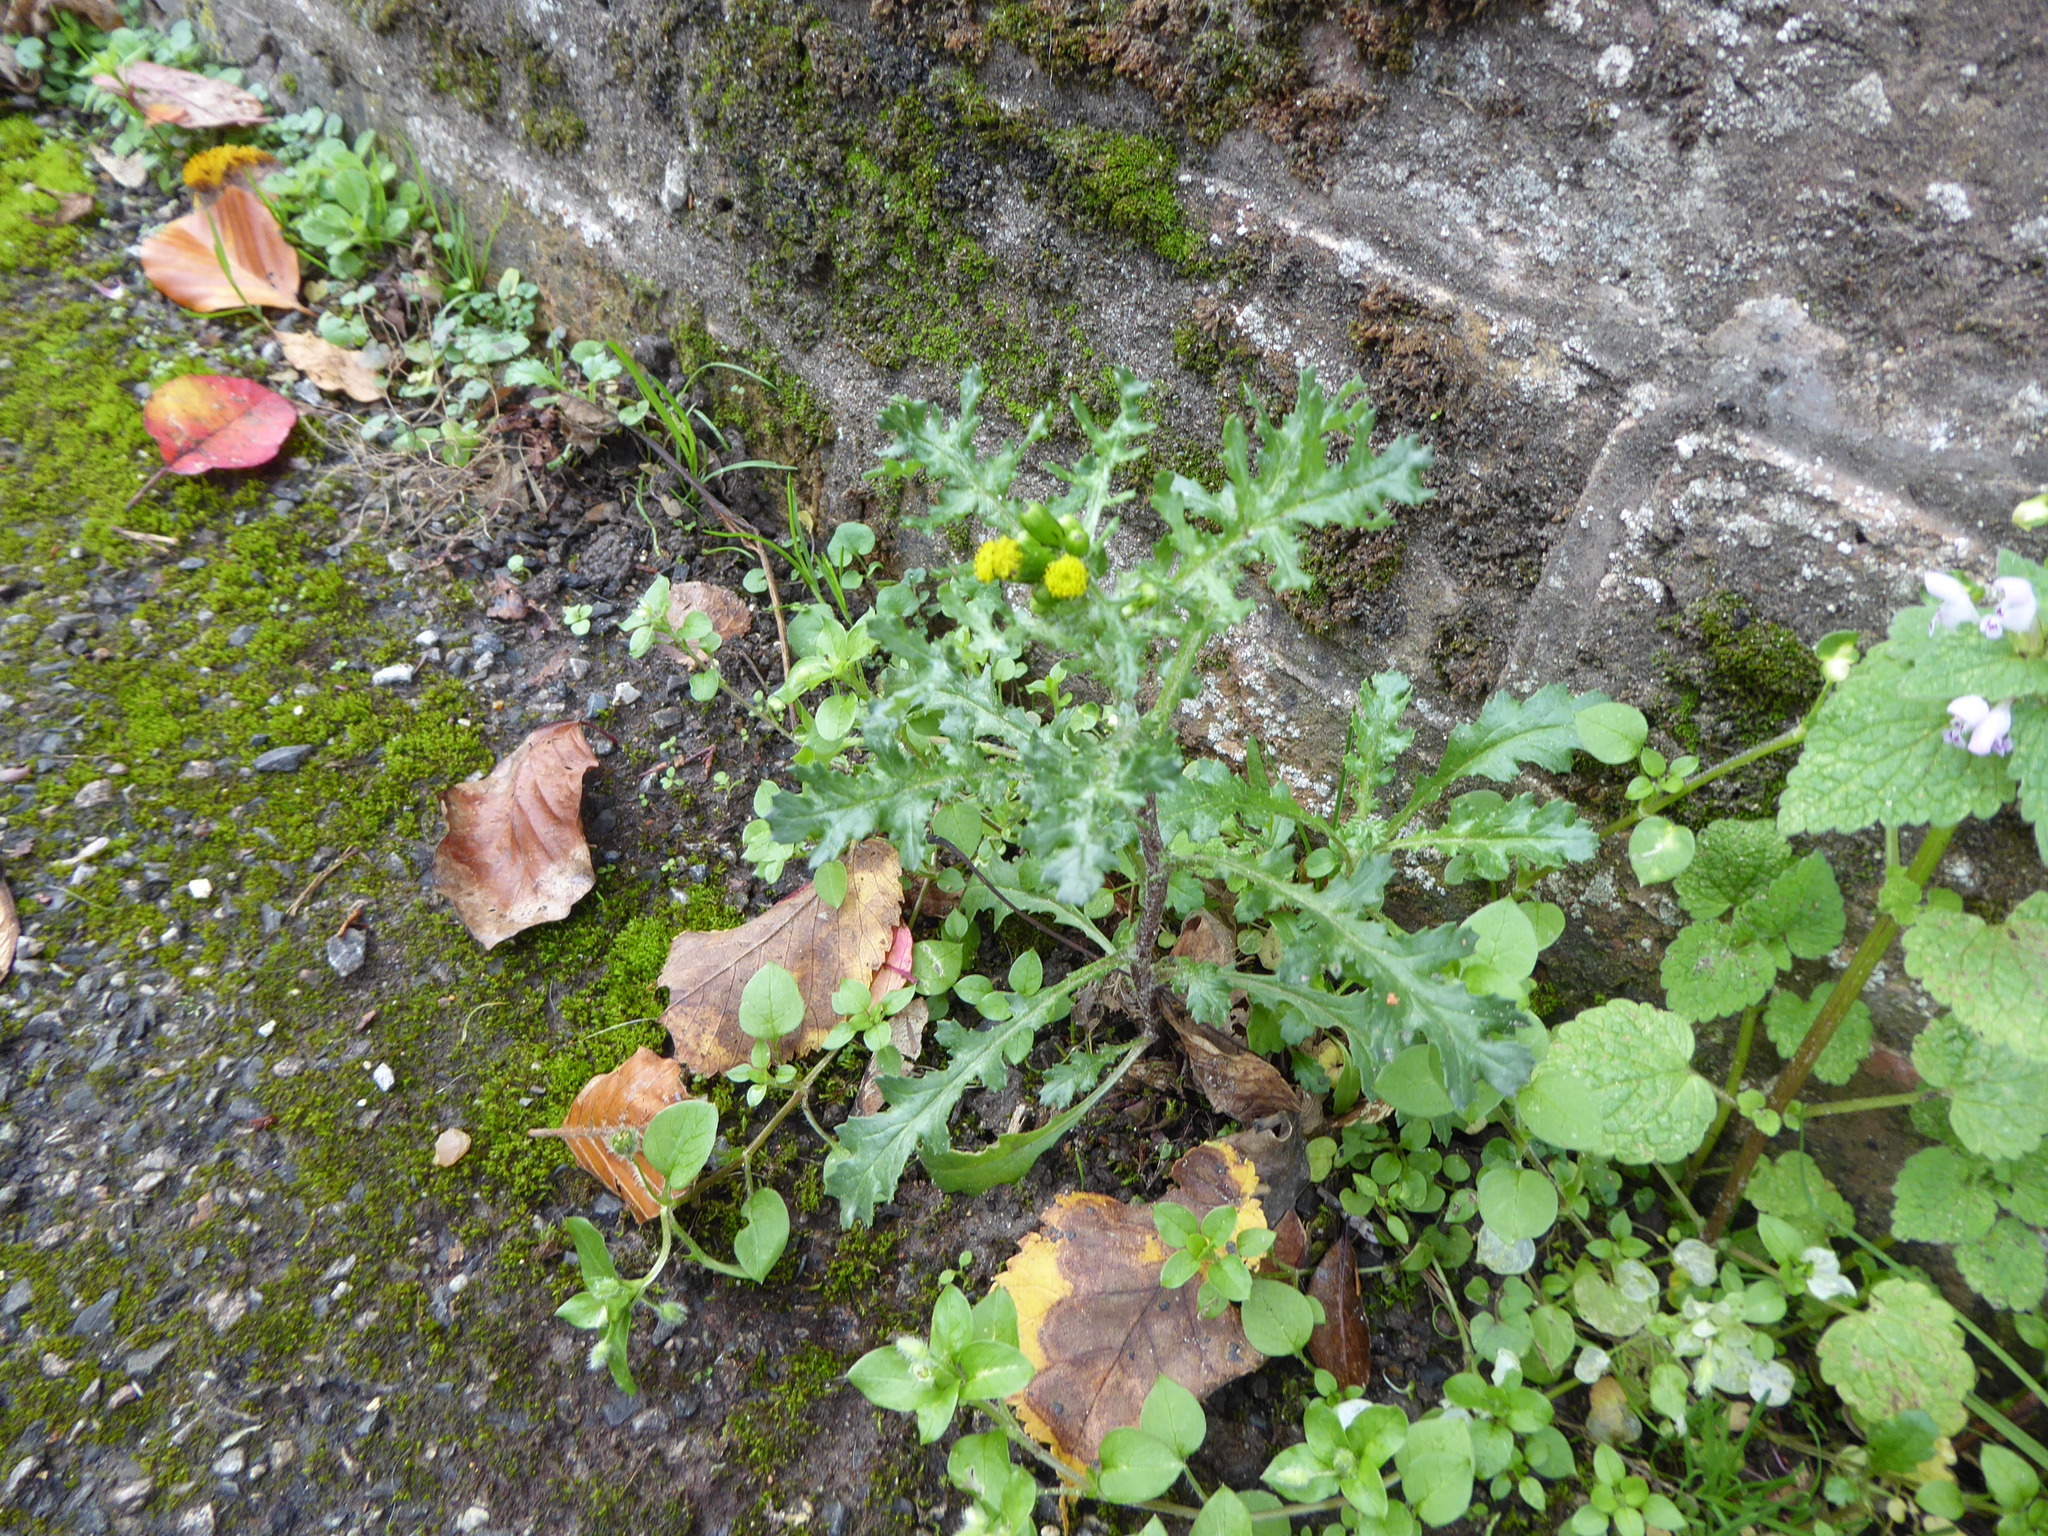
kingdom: Plantae
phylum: Tracheophyta
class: Magnoliopsida
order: Asterales
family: Asteraceae
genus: Senecio
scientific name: Senecio vulgaris
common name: Old-man-in-the-spring
